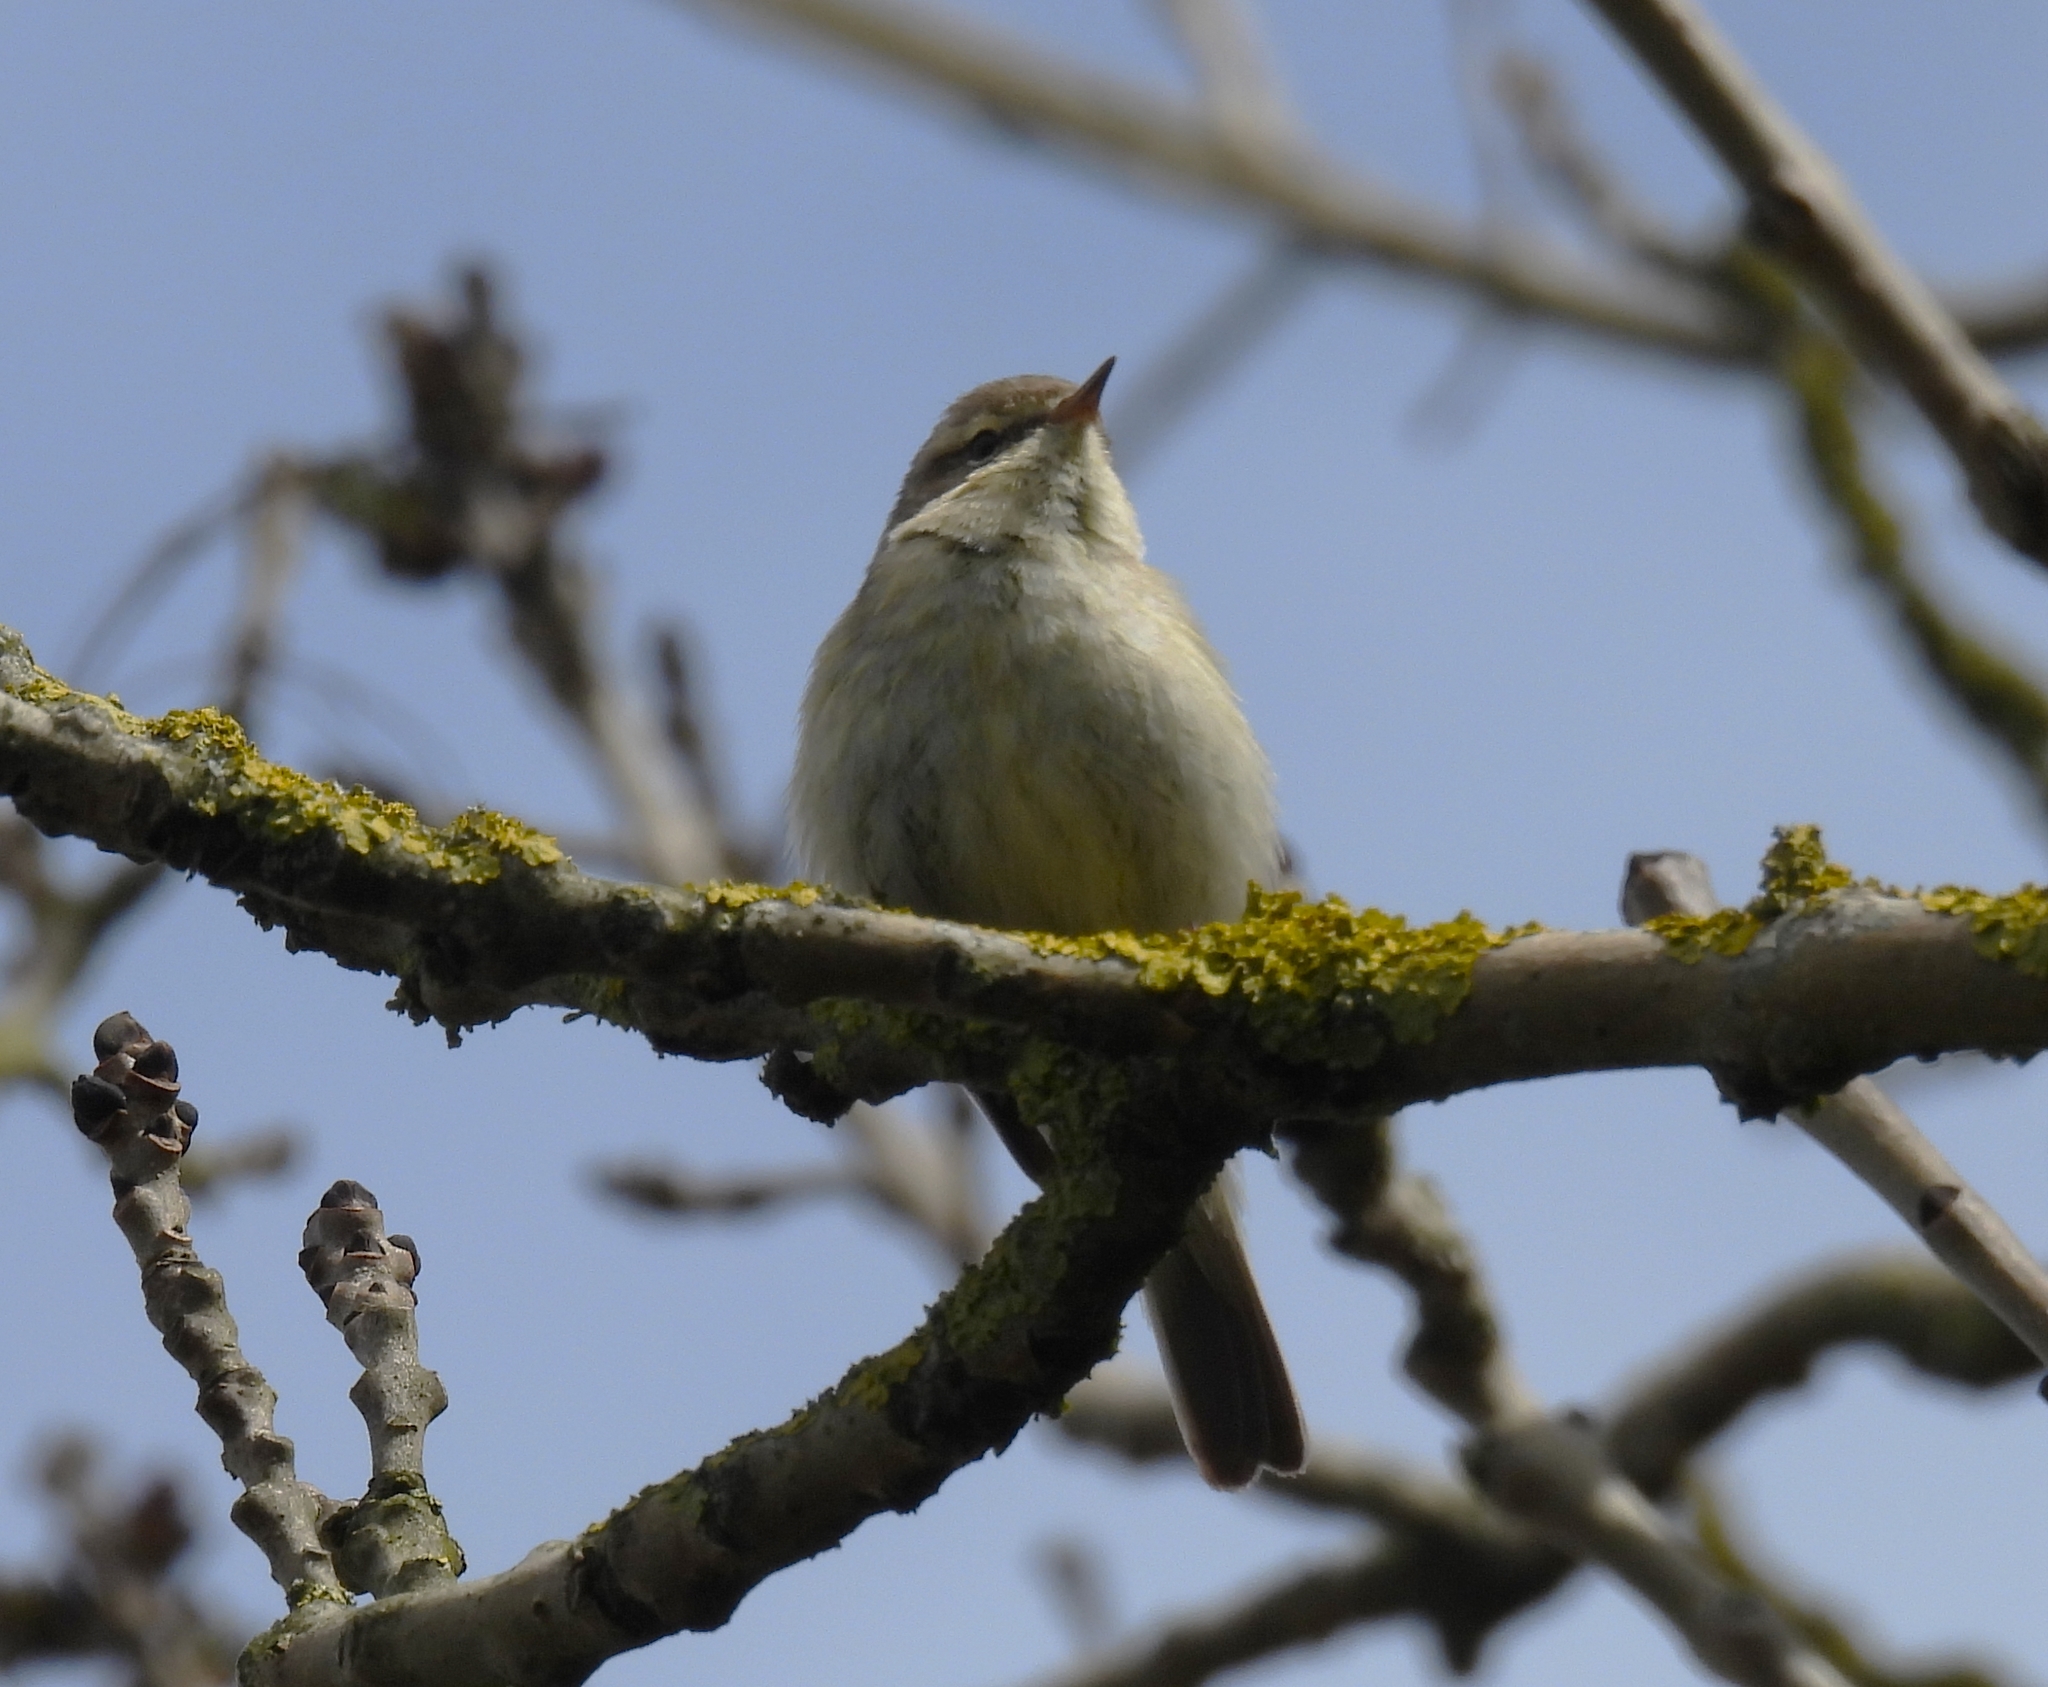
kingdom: Animalia
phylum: Chordata
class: Aves
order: Passeriformes
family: Phylloscopidae
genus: Phylloscopus
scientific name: Phylloscopus collybita
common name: Common chiffchaff
